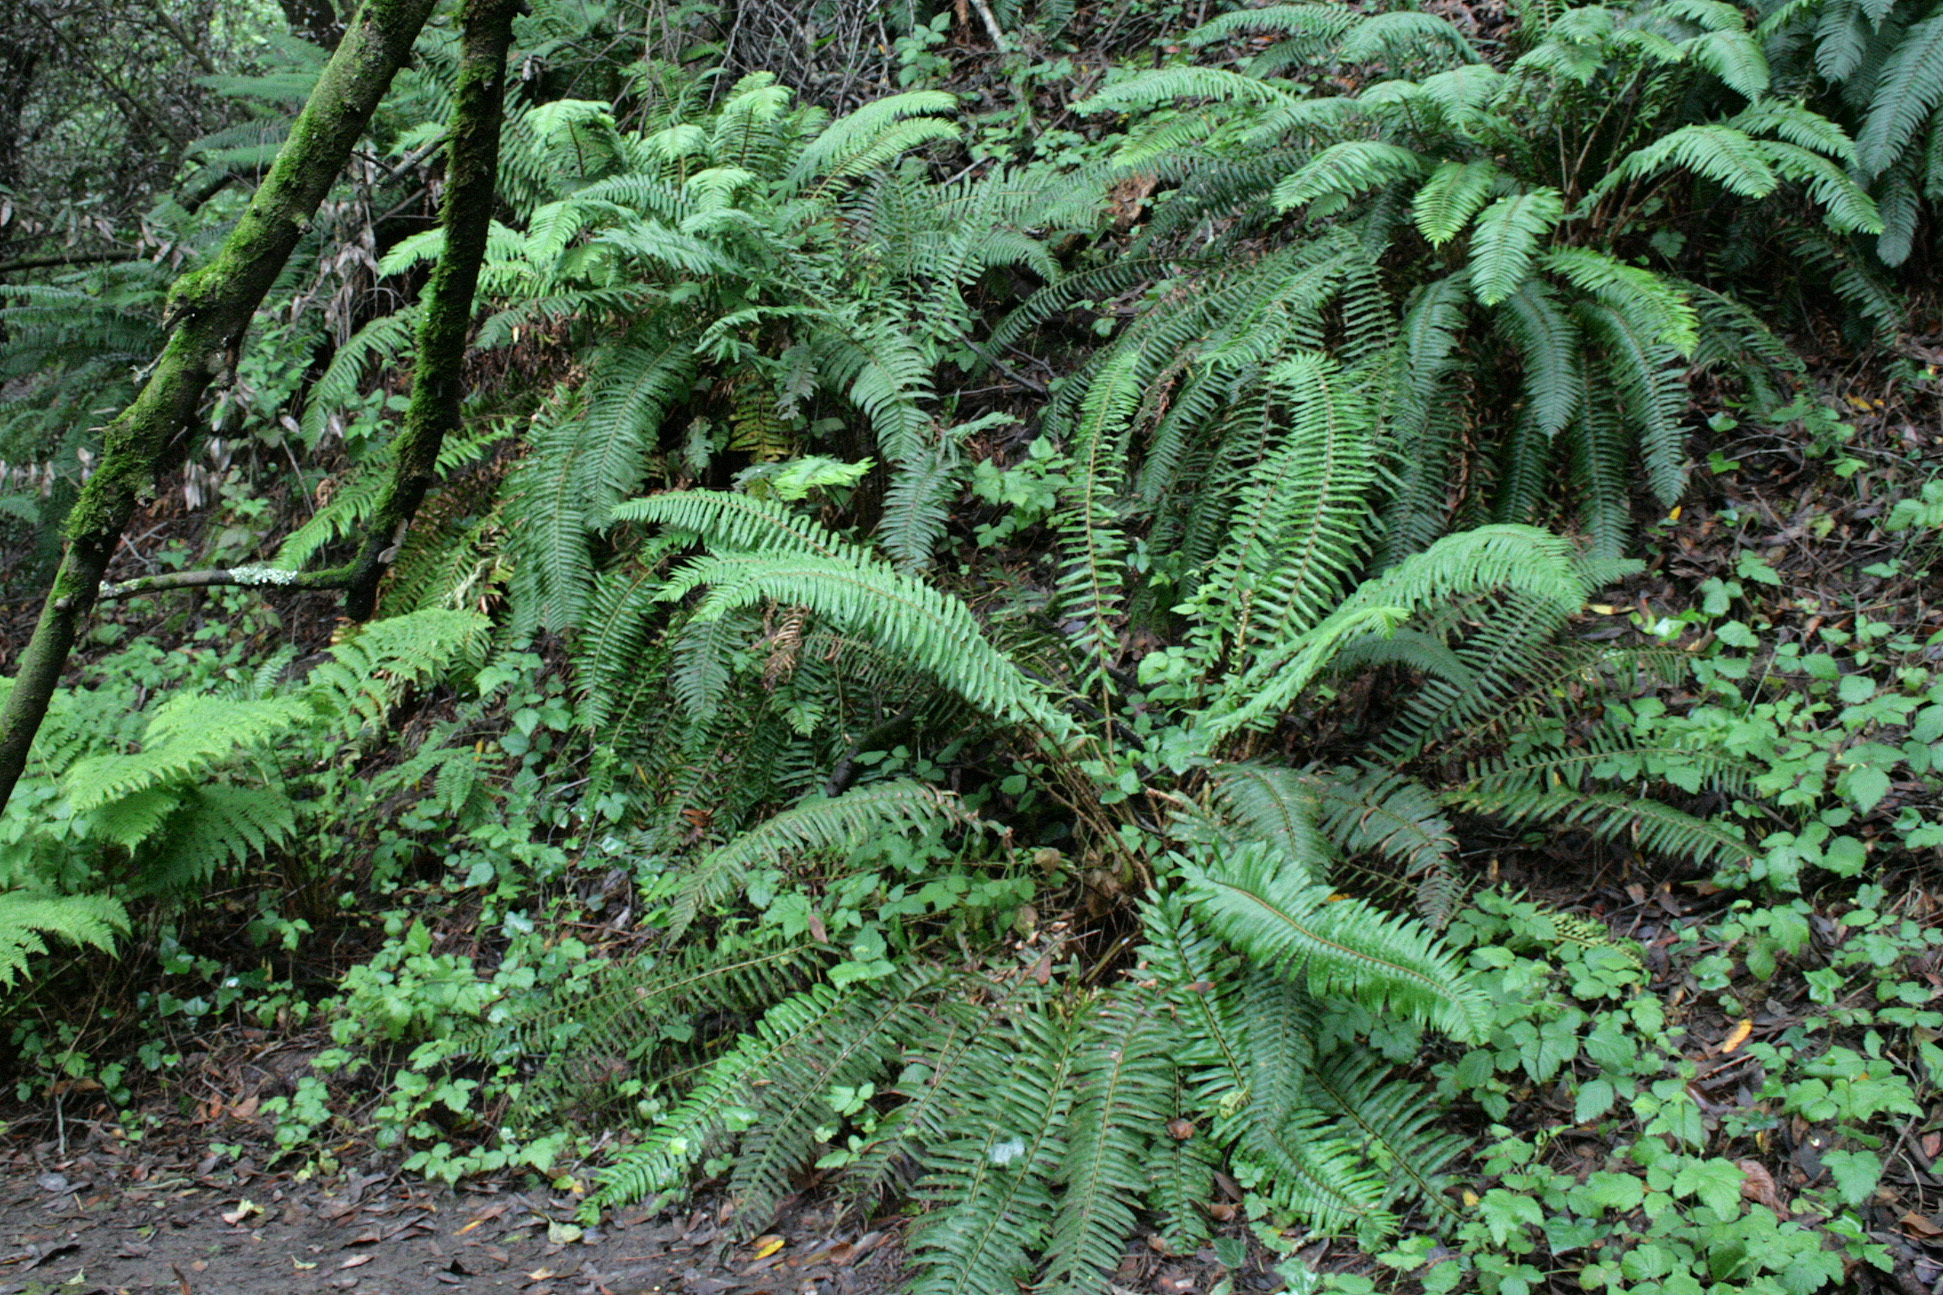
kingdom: Plantae
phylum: Tracheophyta
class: Polypodiopsida
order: Polypodiales
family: Dryopteridaceae
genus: Polystichum
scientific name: Polystichum munitum
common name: Western sword-fern
